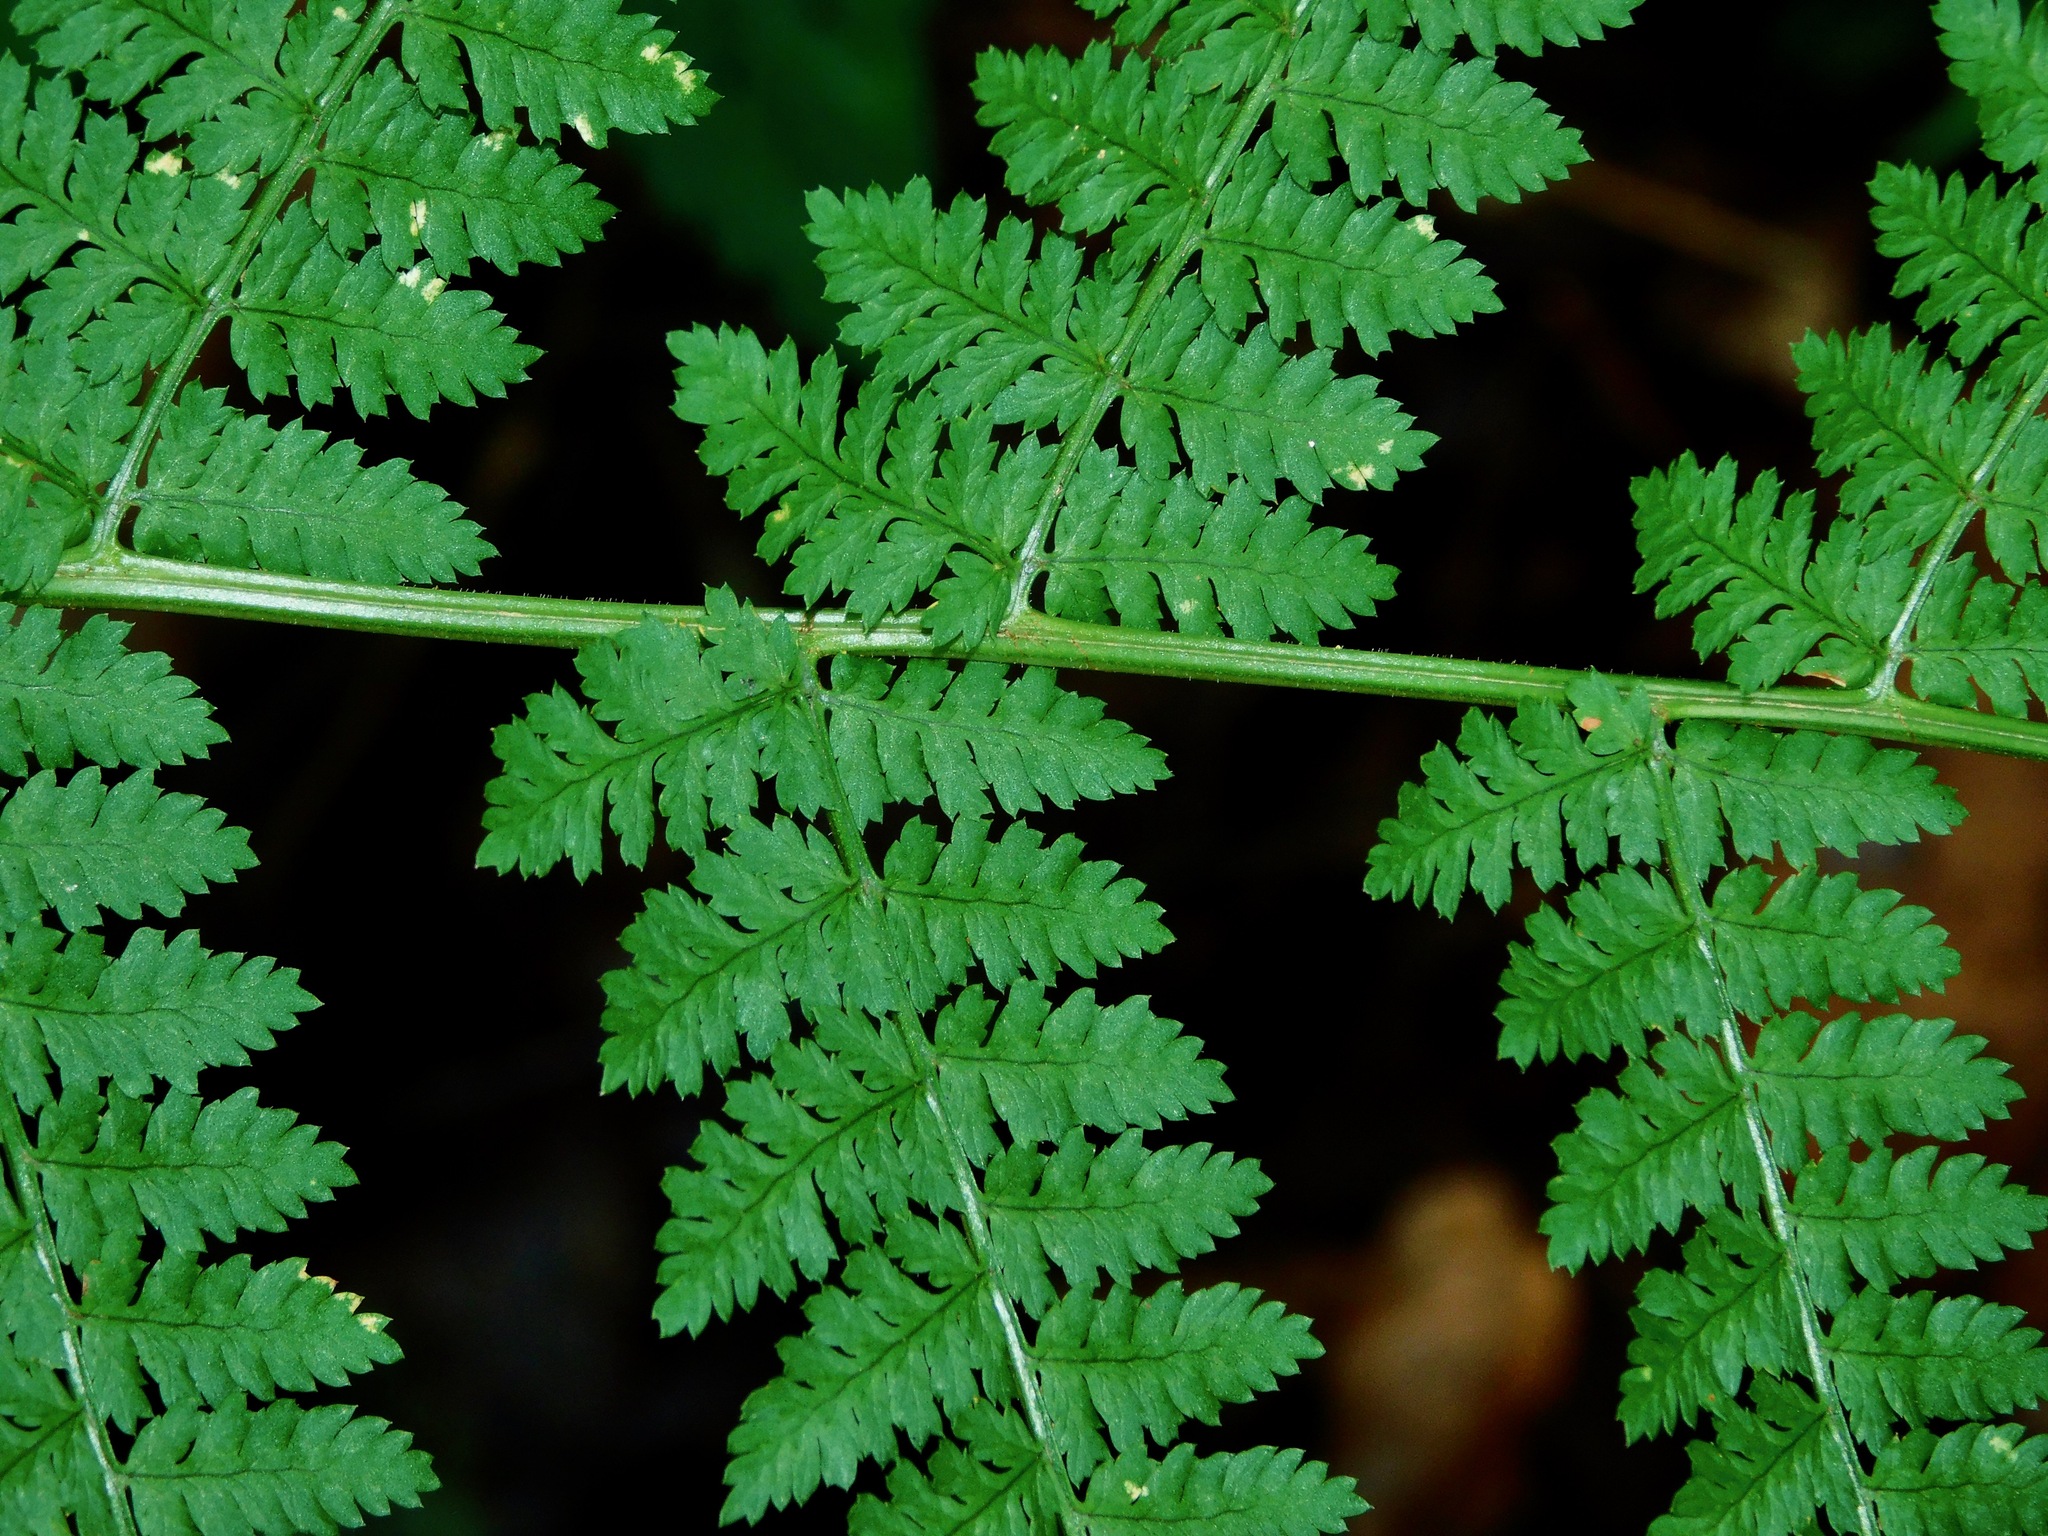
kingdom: Plantae
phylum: Tracheophyta
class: Polypodiopsida
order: Polypodiales
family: Dryopteridaceae
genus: Dryopteris
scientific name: Dryopteris intermedia
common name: Evergreen wood fern
